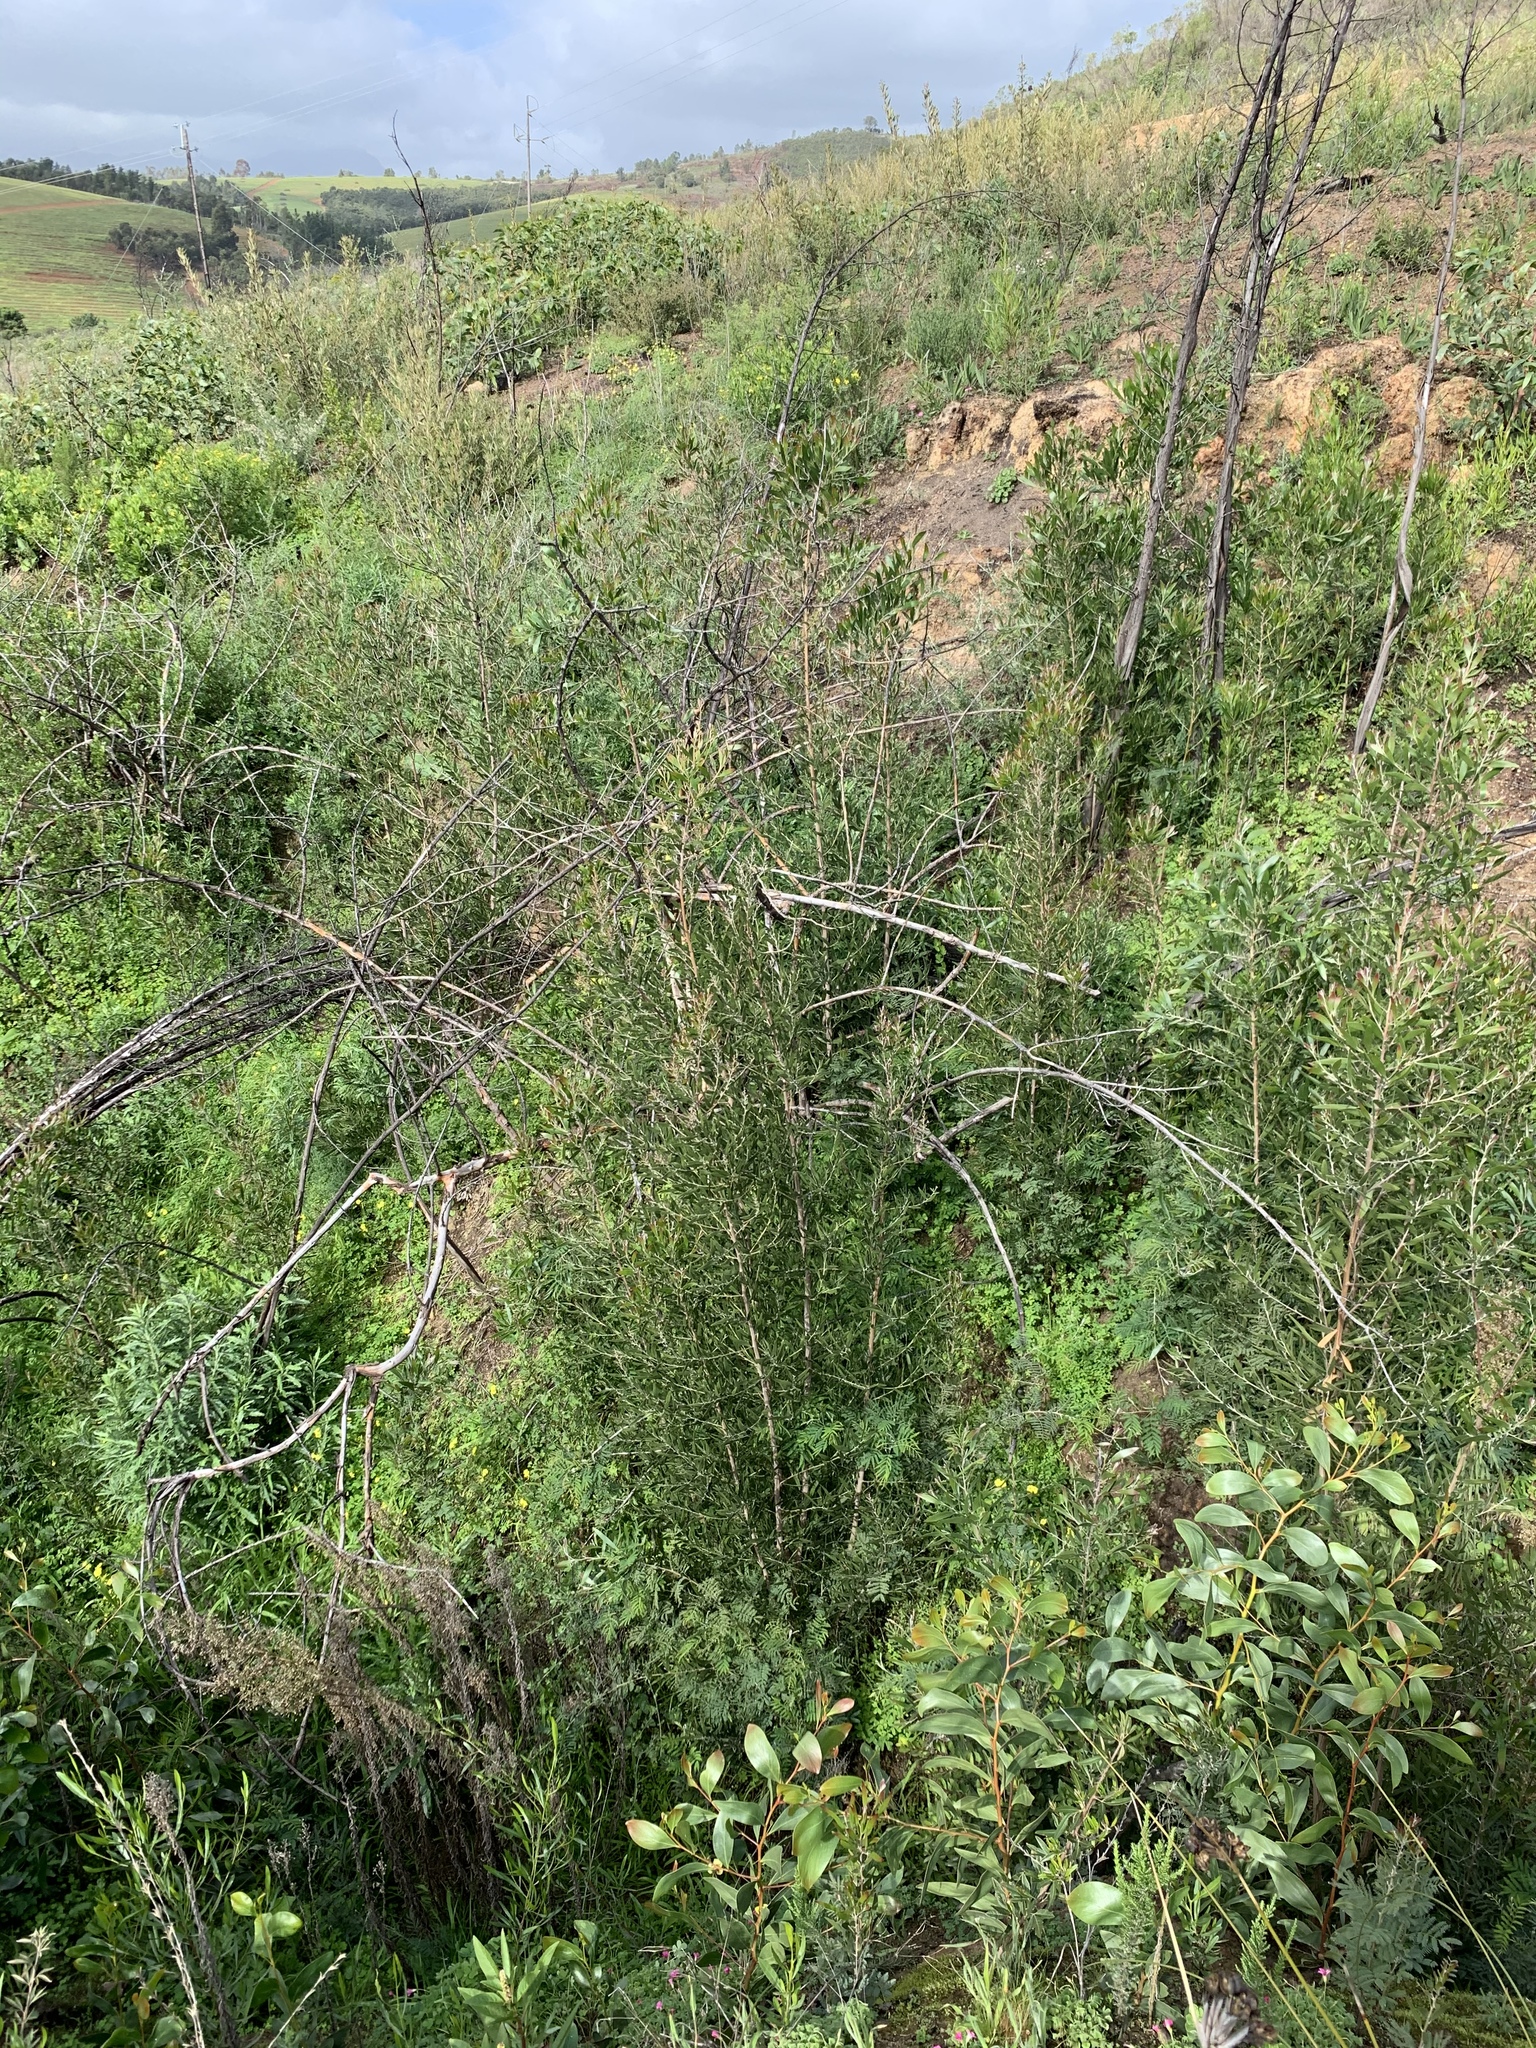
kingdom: Plantae
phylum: Tracheophyta
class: Magnoliopsida
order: Fabales
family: Fabaceae
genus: Acacia
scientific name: Acacia melanoxylon
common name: Blackwood
